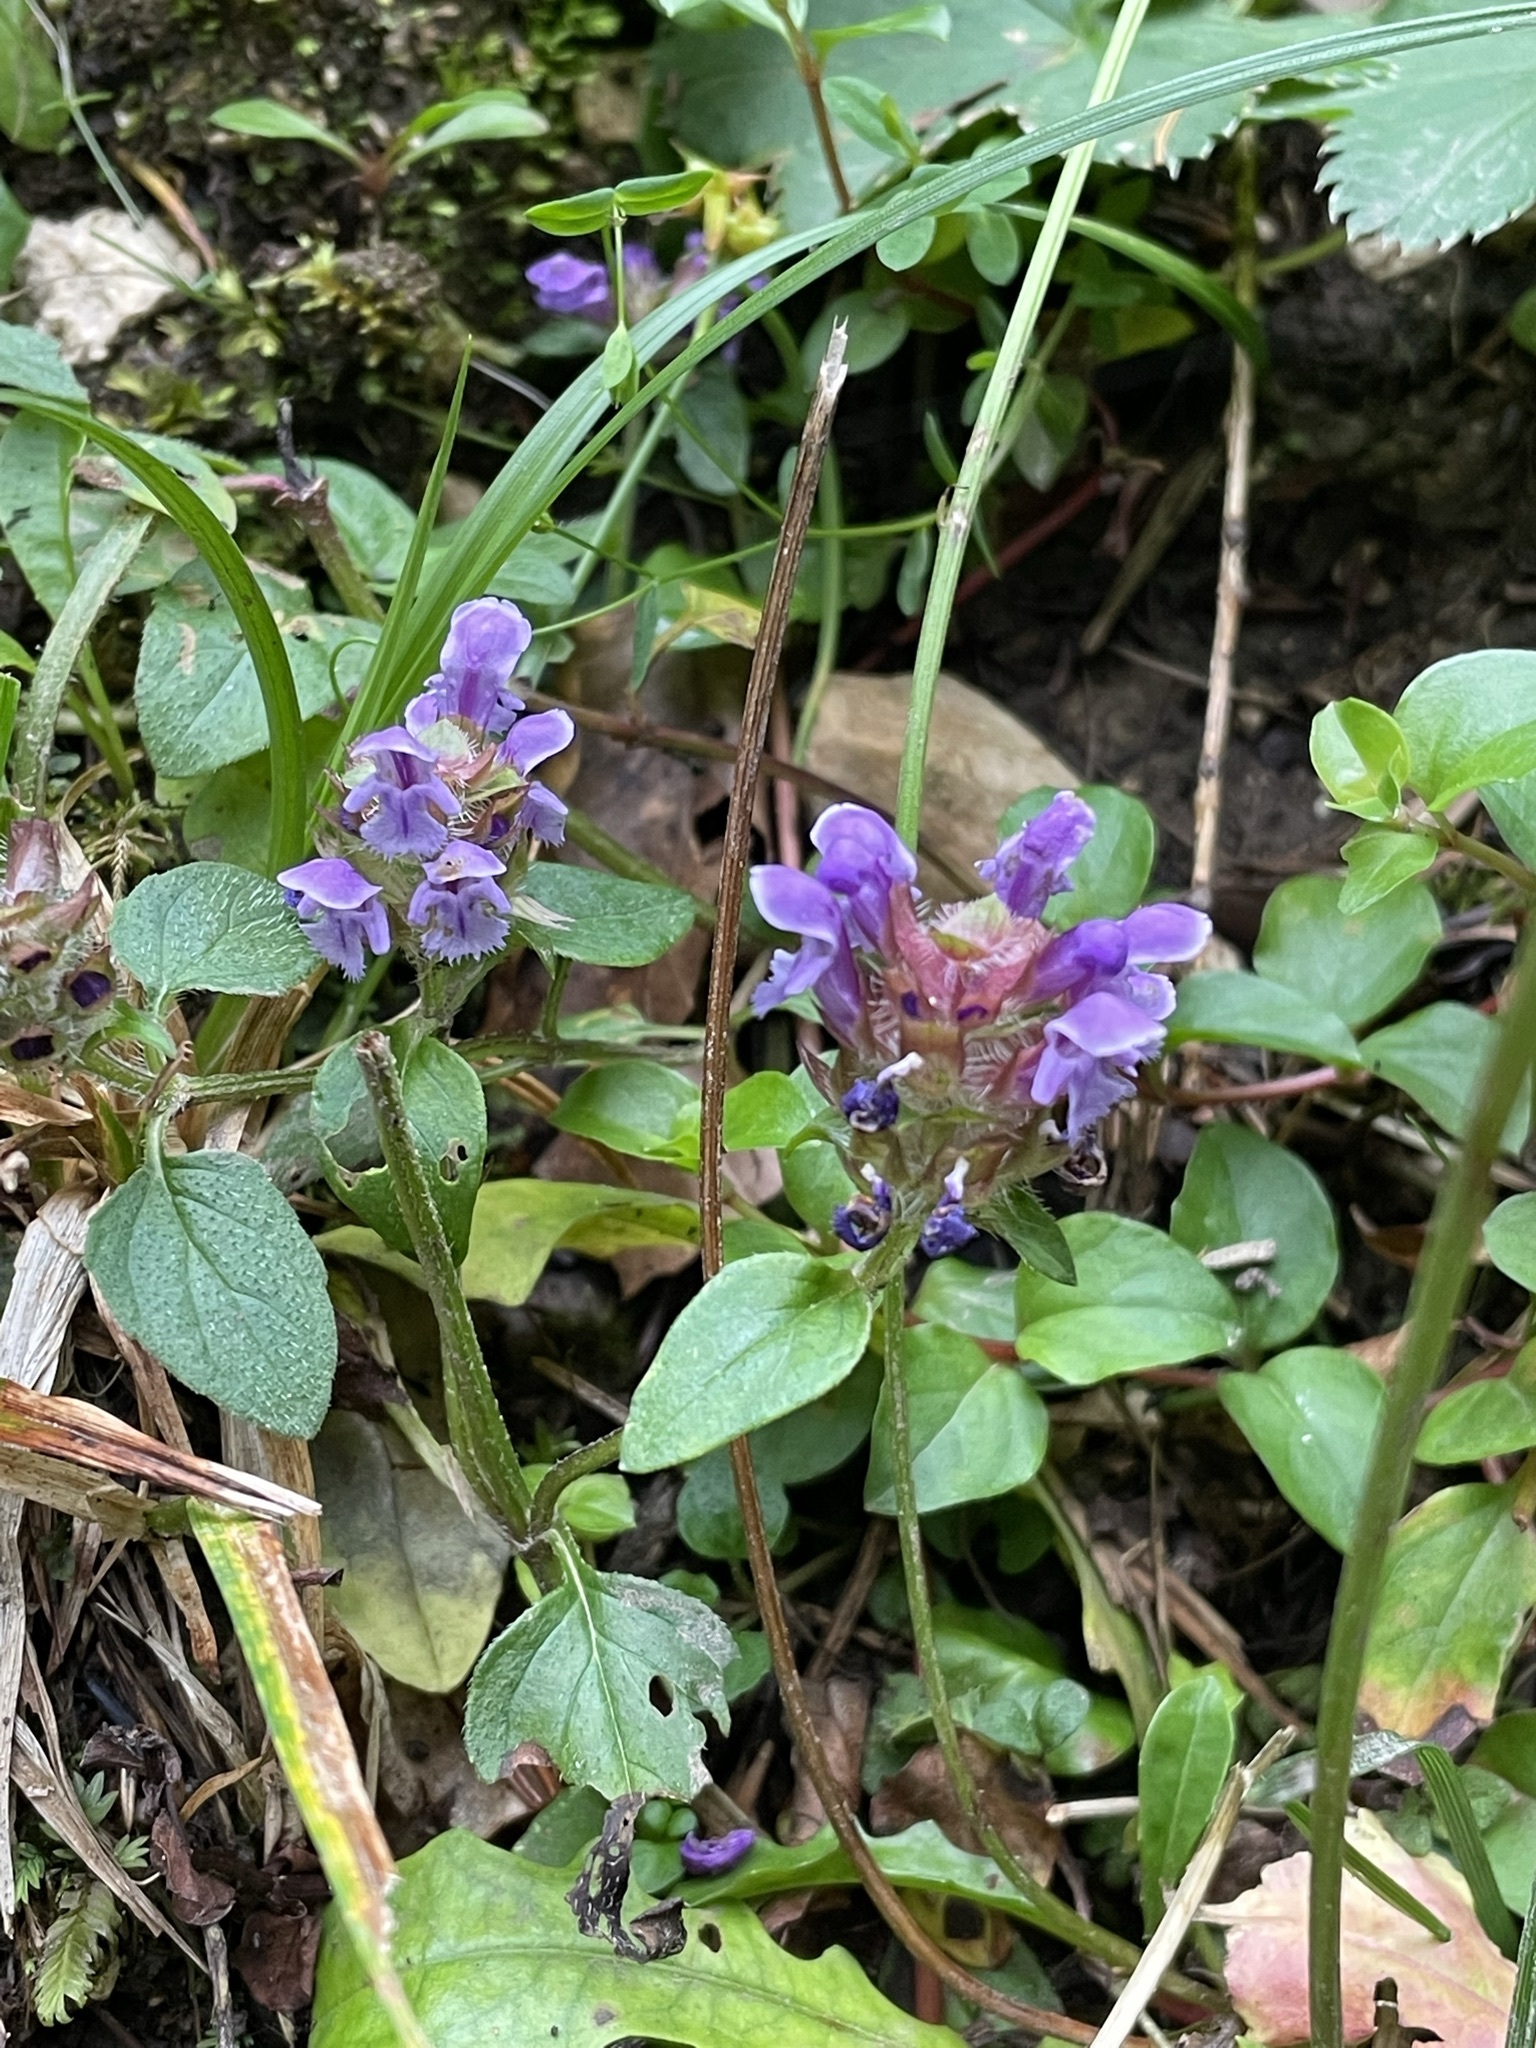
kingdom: Plantae
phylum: Tracheophyta
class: Magnoliopsida
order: Lamiales
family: Lamiaceae
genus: Prunella
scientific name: Prunella vulgaris
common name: Heal-all
